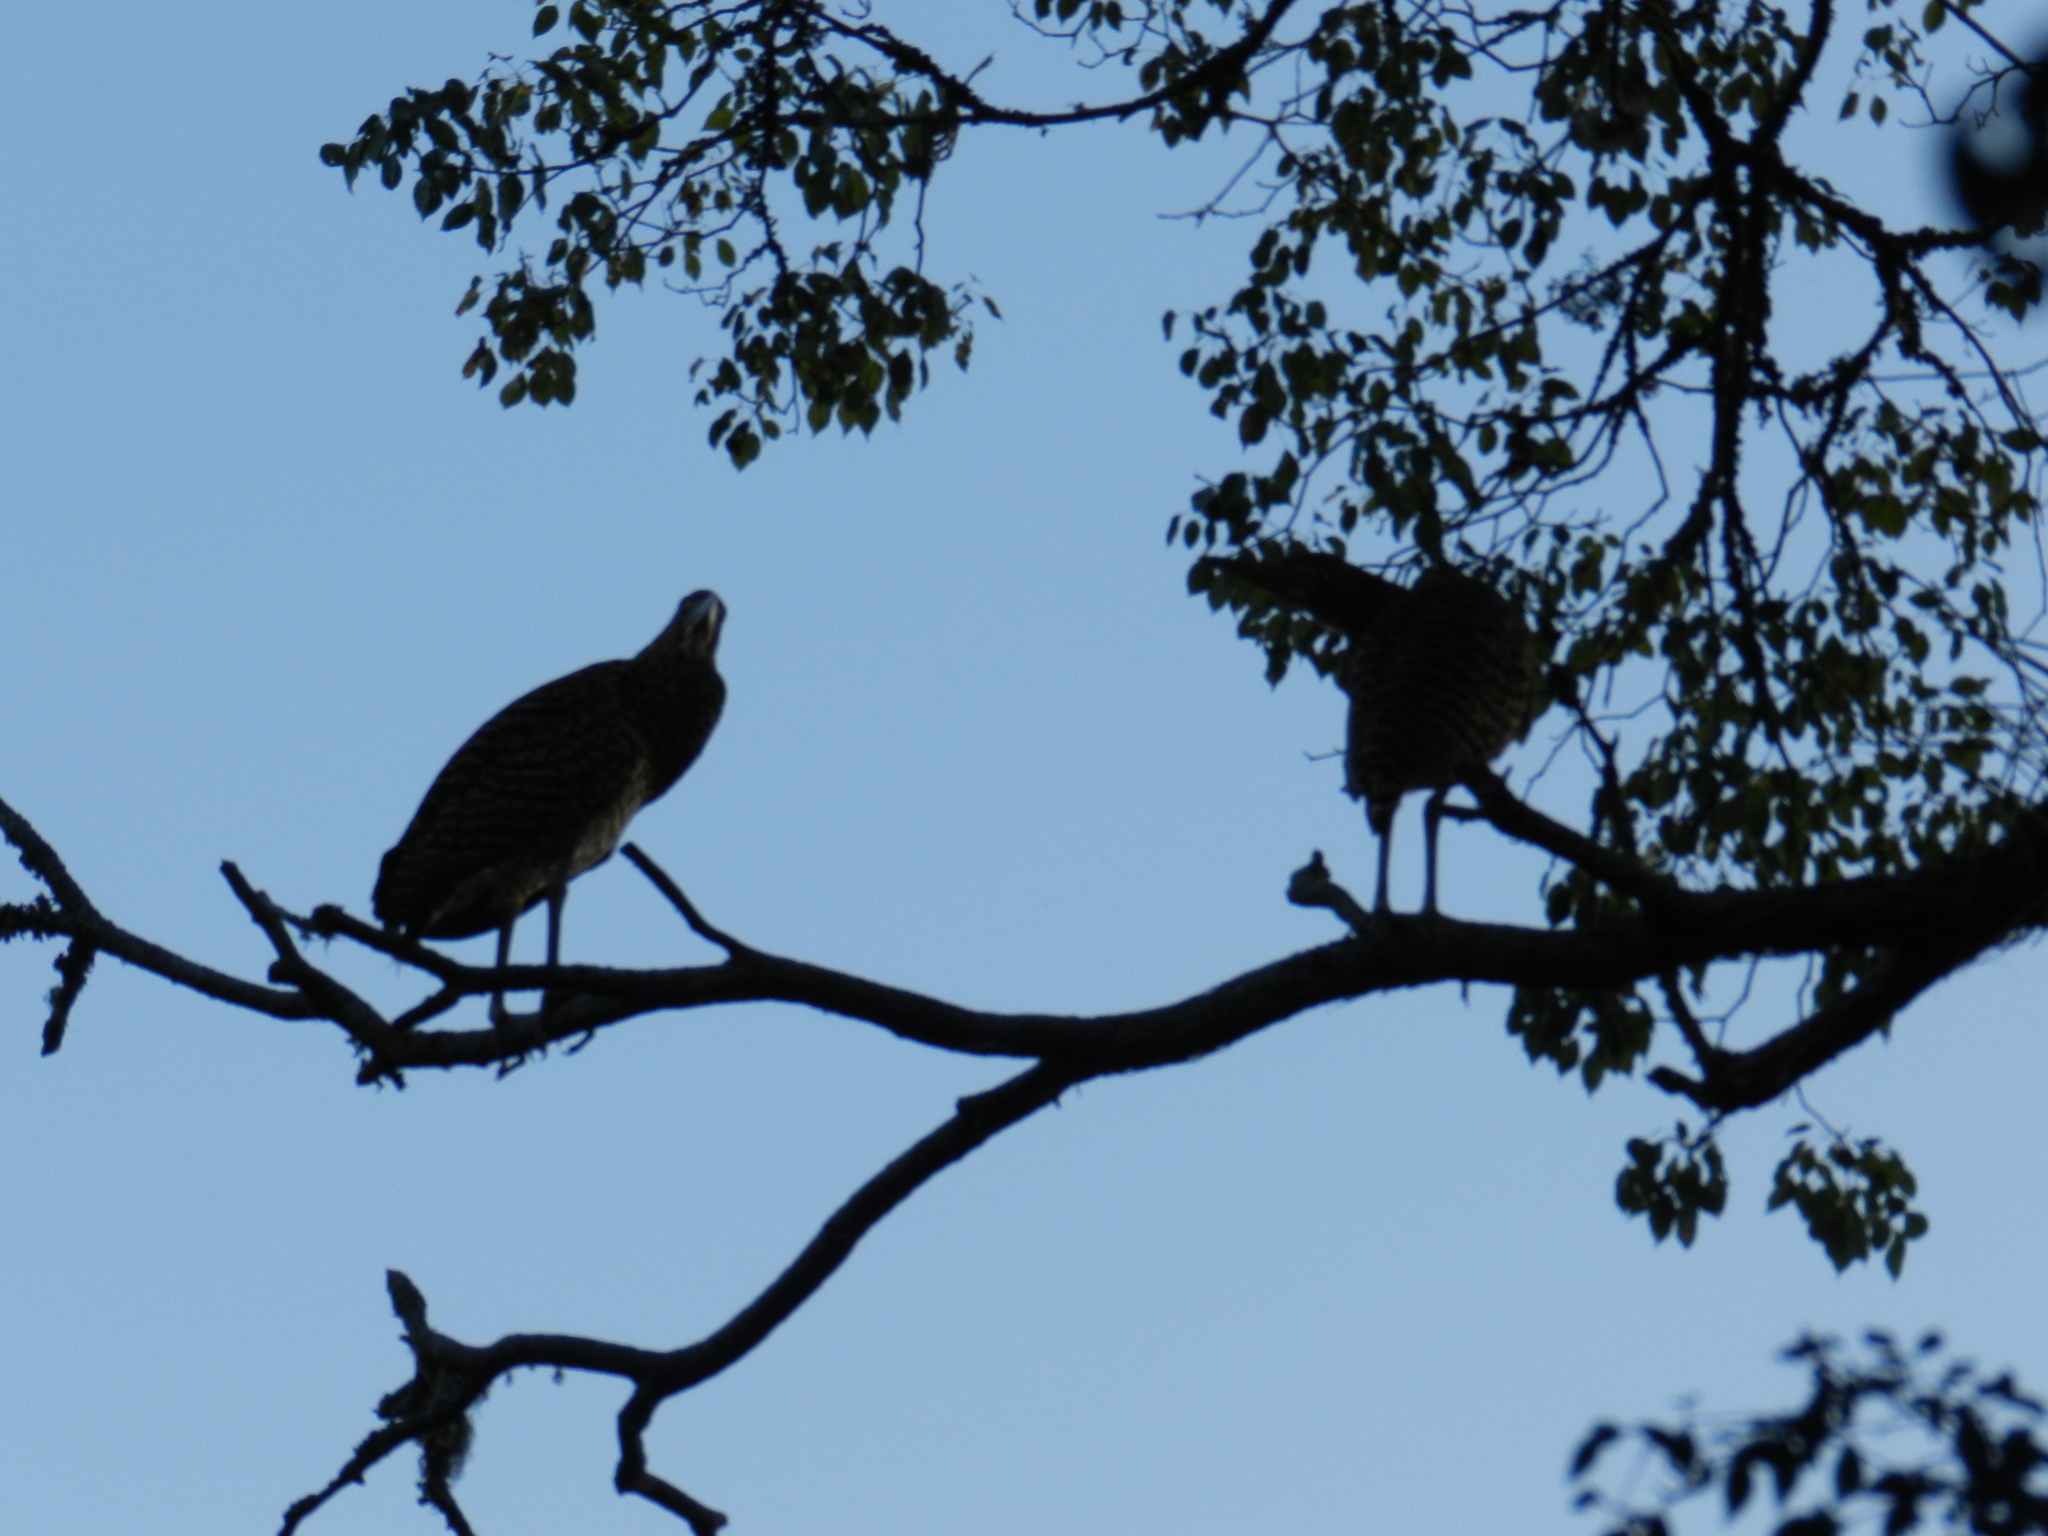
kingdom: Animalia
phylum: Chordata
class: Aves
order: Pelecaniformes
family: Ardeidae
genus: Tigrisoma
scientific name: Tigrisoma lineatum
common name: Rufescent tiger-heron
